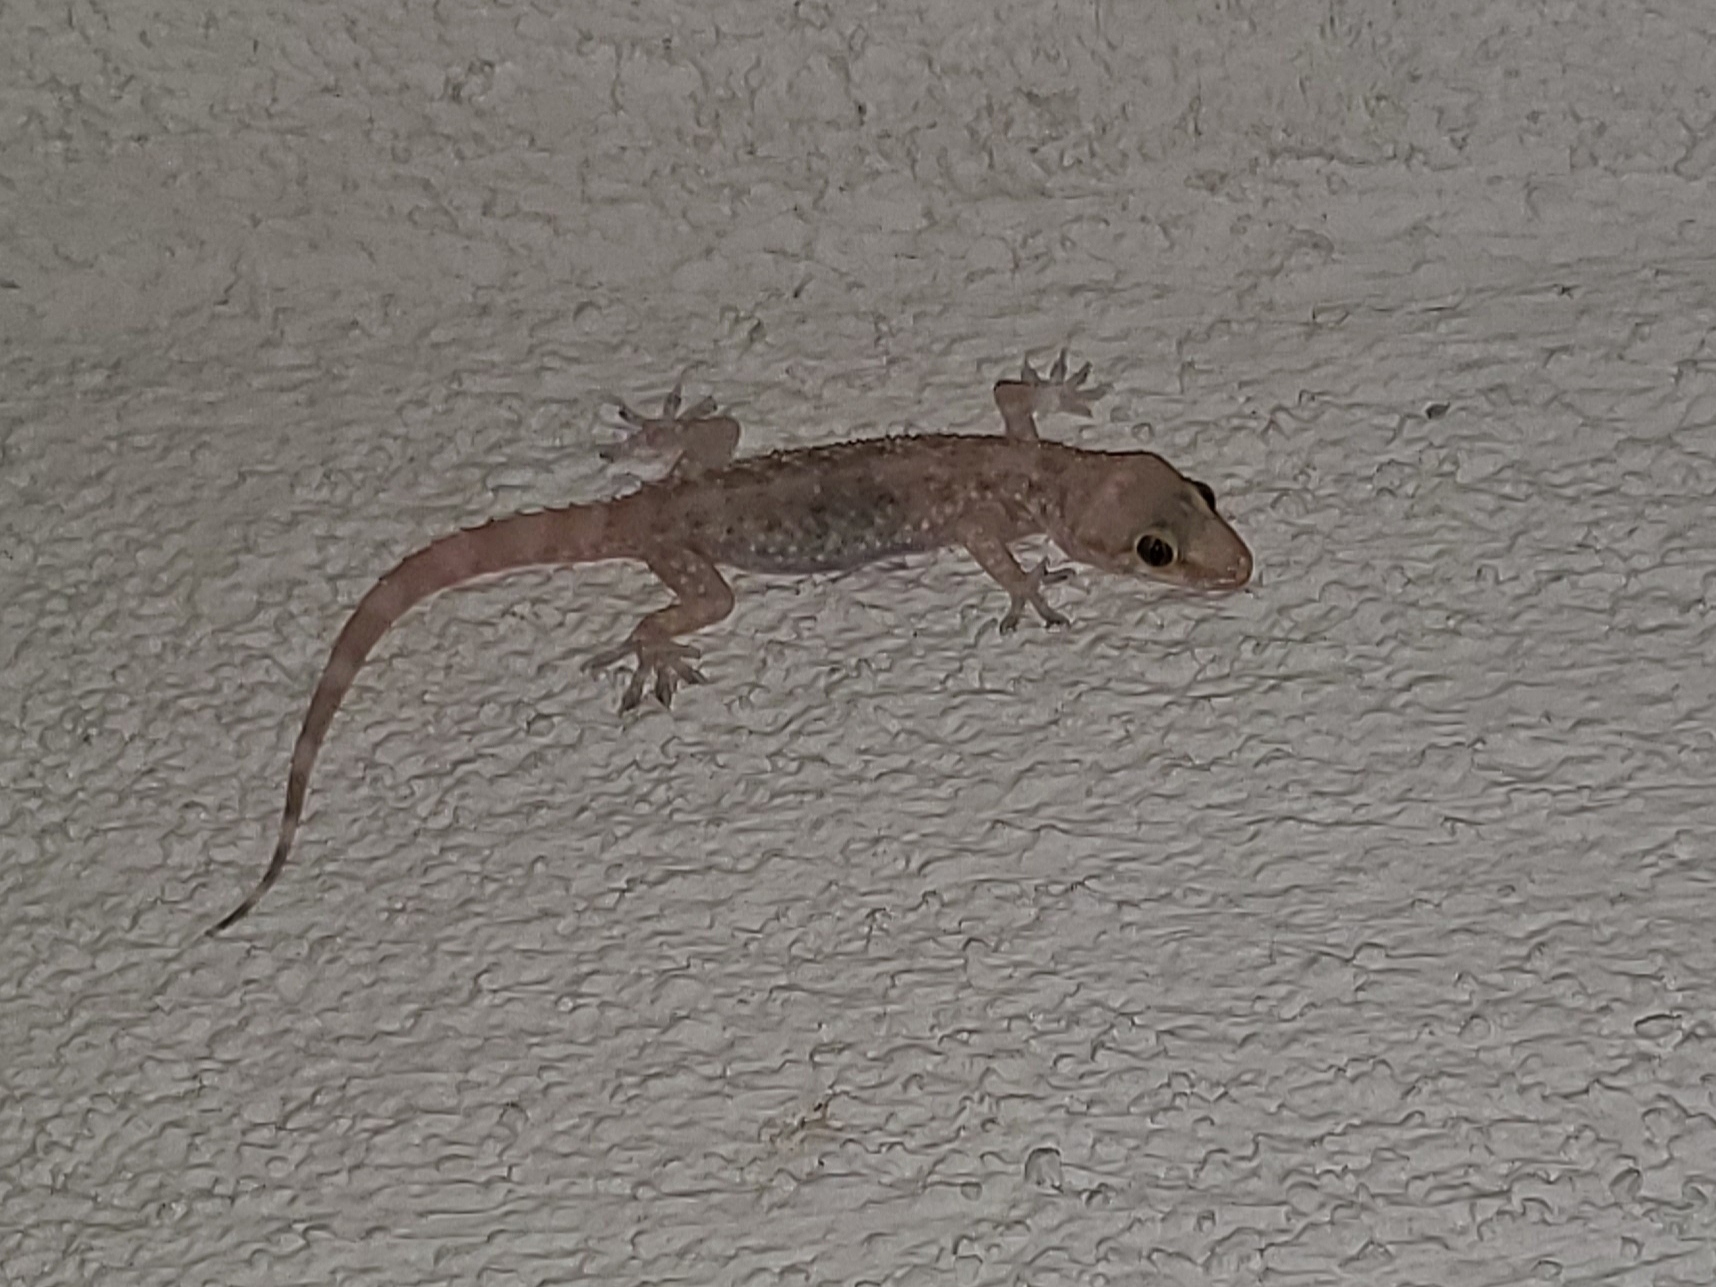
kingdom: Animalia
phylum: Chordata
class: Squamata
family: Gekkonidae
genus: Hemidactylus
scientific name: Hemidactylus turcicus
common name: Turkish gecko
